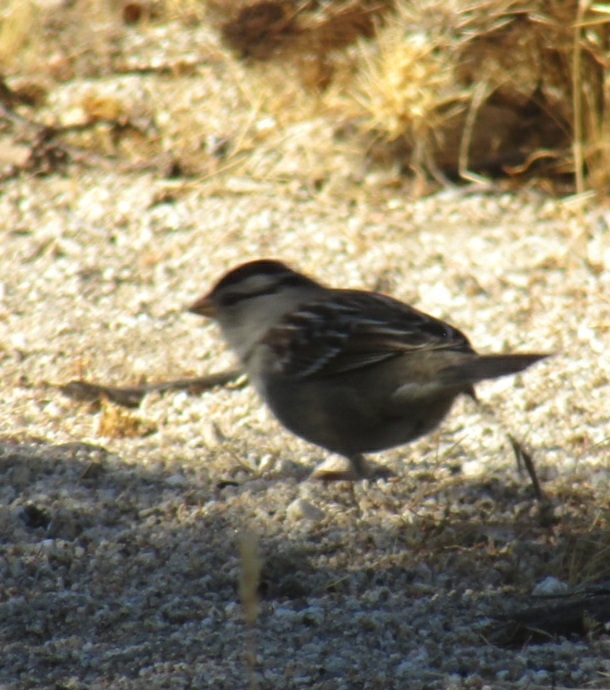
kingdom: Animalia
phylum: Chordata
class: Aves
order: Passeriformes
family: Passerellidae
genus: Zonotrichia
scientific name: Zonotrichia leucophrys
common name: White-crowned sparrow
